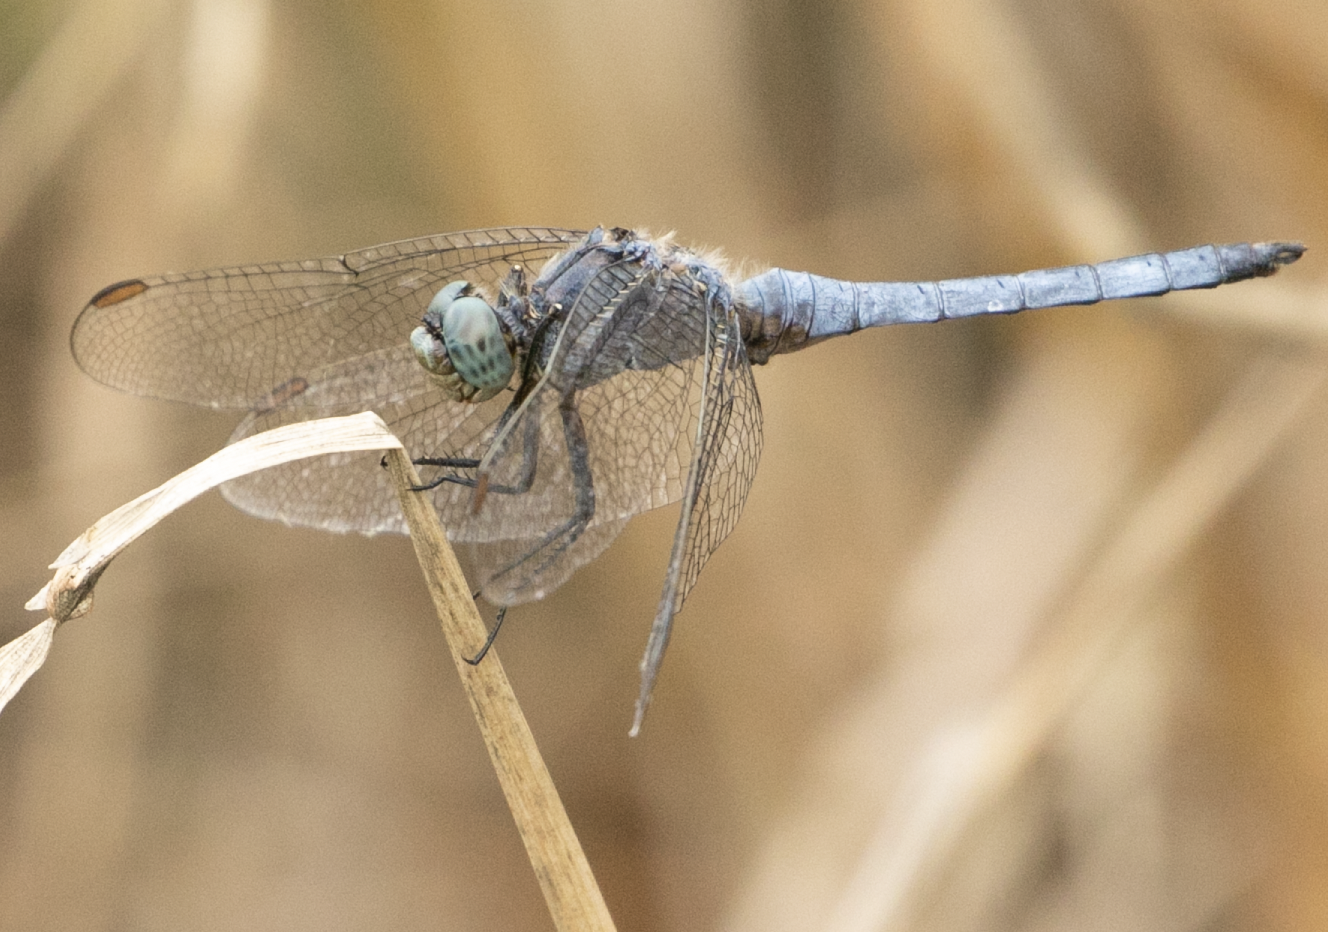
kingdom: Animalia
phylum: Arthropoda
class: Insecta
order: Odonata
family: Libellulidae
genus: Orthetrum
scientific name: Orthetrum coerulescens
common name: Keeled skimmer
